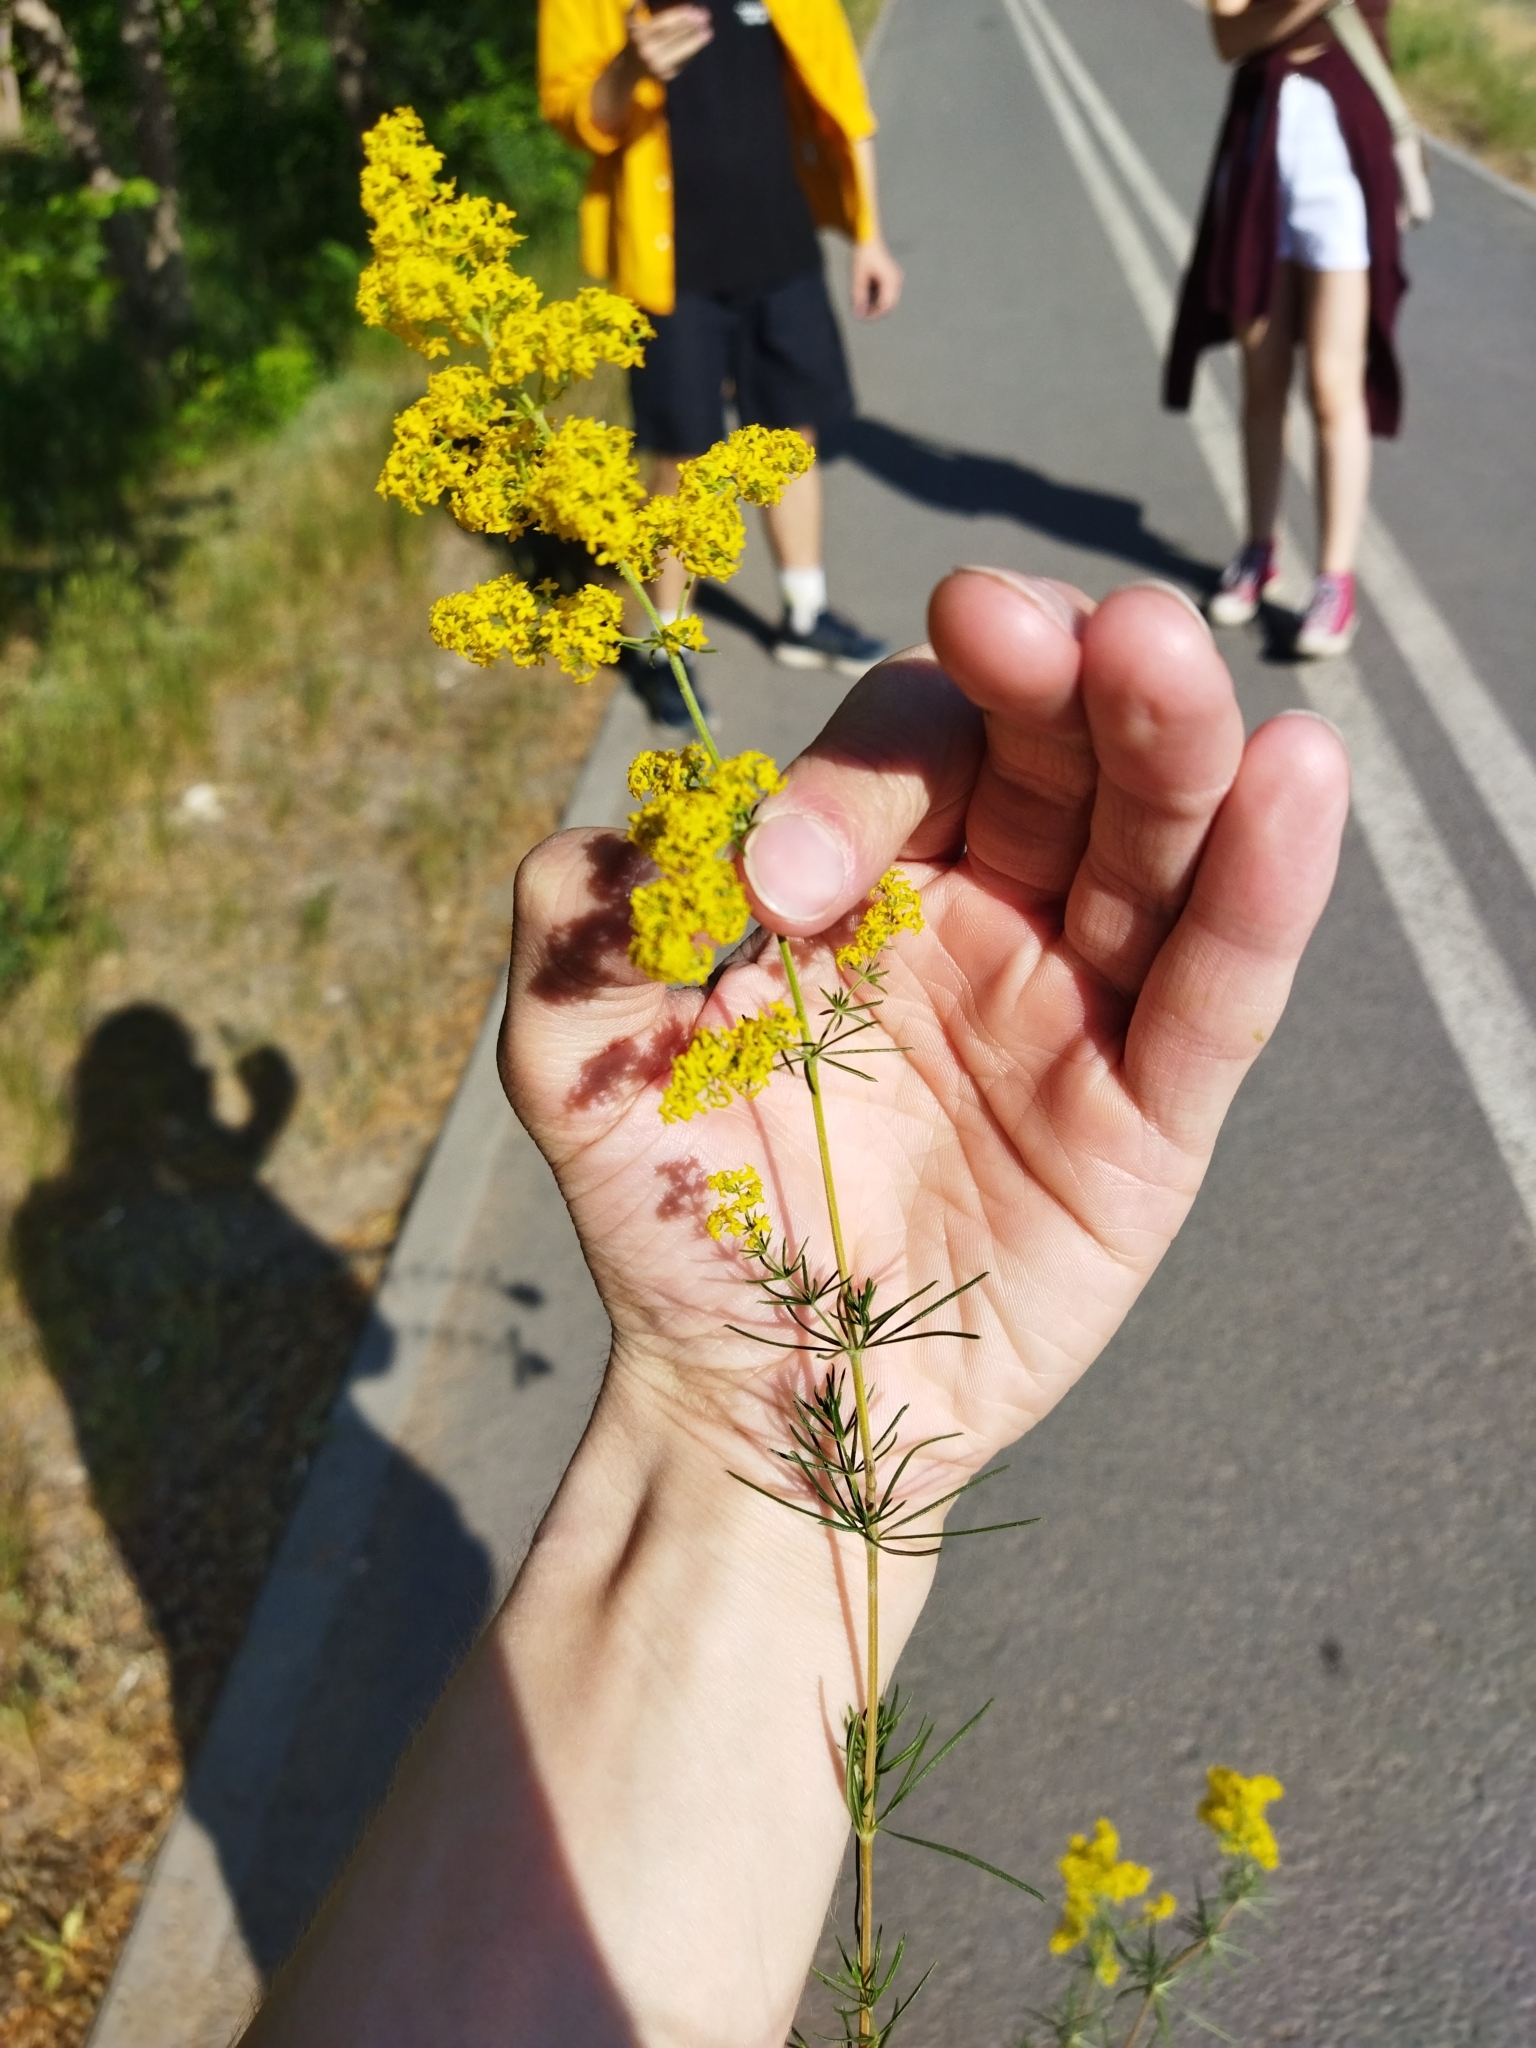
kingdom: Plantae
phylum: Tracheophyta
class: Magnoliopsida
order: Gentianales
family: Rubiaceae
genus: Galium
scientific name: Galium verum
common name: Lady's bedstraw
